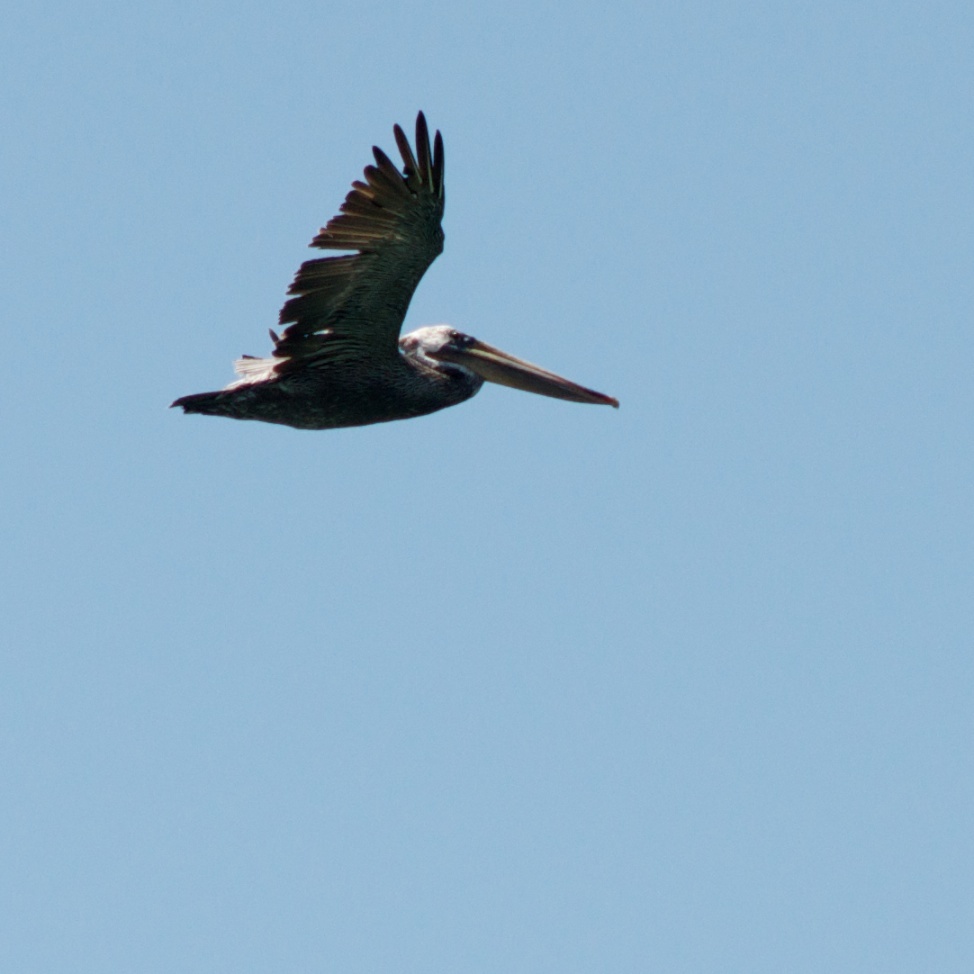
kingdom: Animalia
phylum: Chordata
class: Aves
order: Pelecaniformes
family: Pelecanidae
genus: Pelecanus
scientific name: Pelecanus occidentalis
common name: Brown pelican
